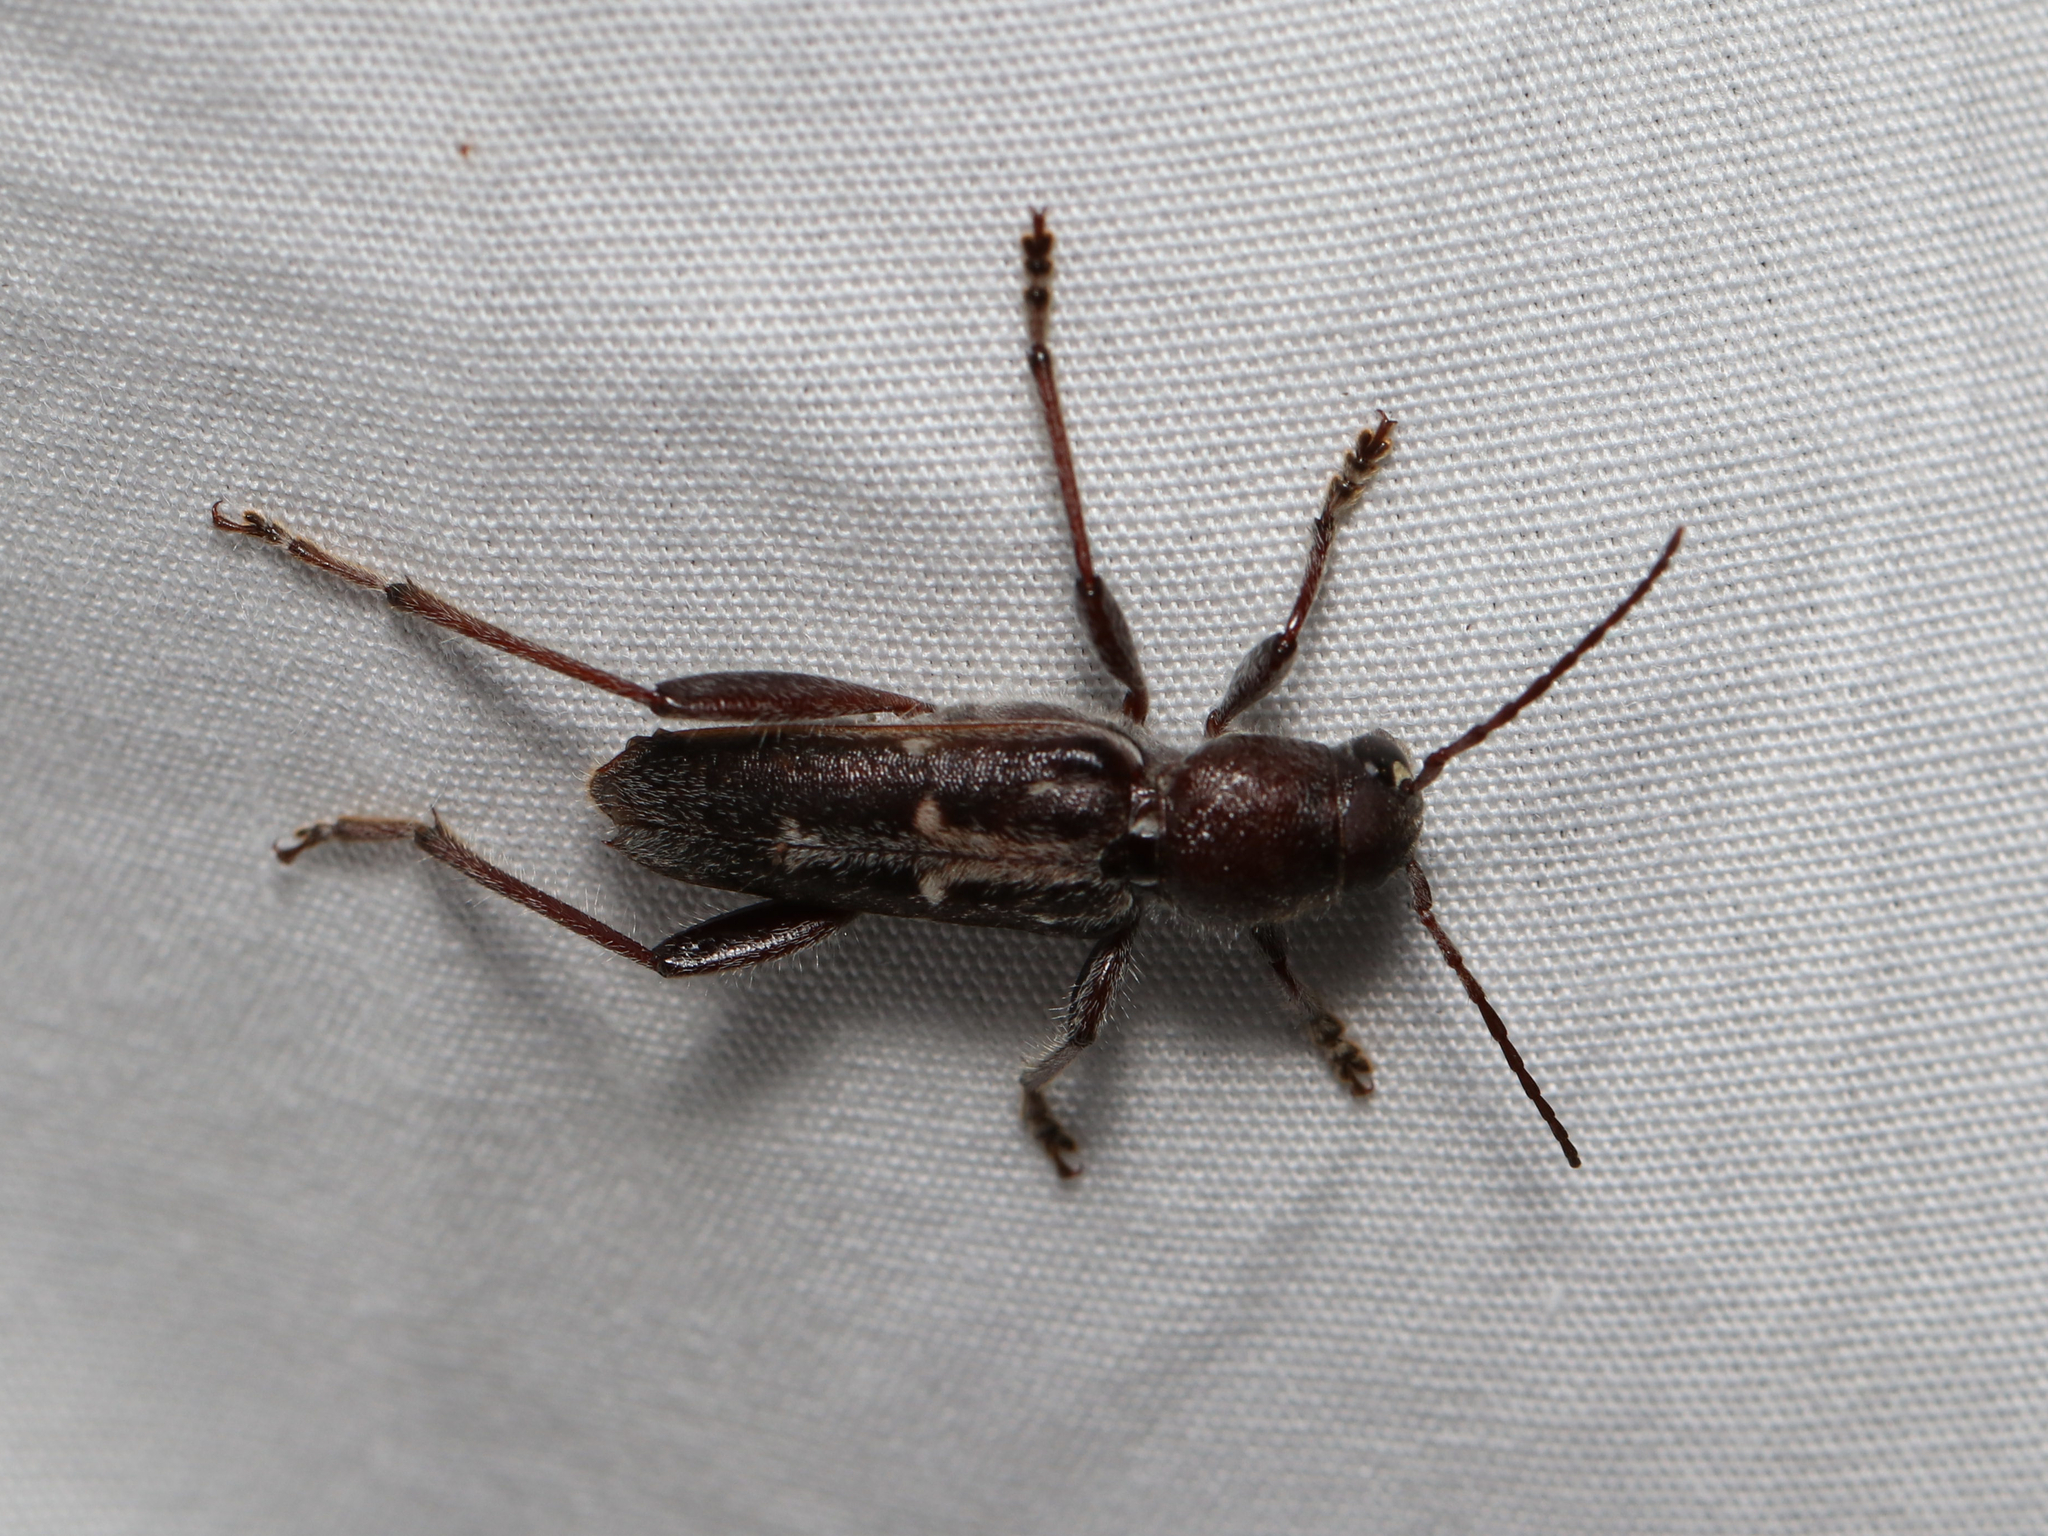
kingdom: Animalia
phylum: Arthropoda
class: Insecta
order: Coleoptera
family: Cerambycidae
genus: Xylotrechus
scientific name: Xylotrechus sagittatus
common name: Arrowhead borer
